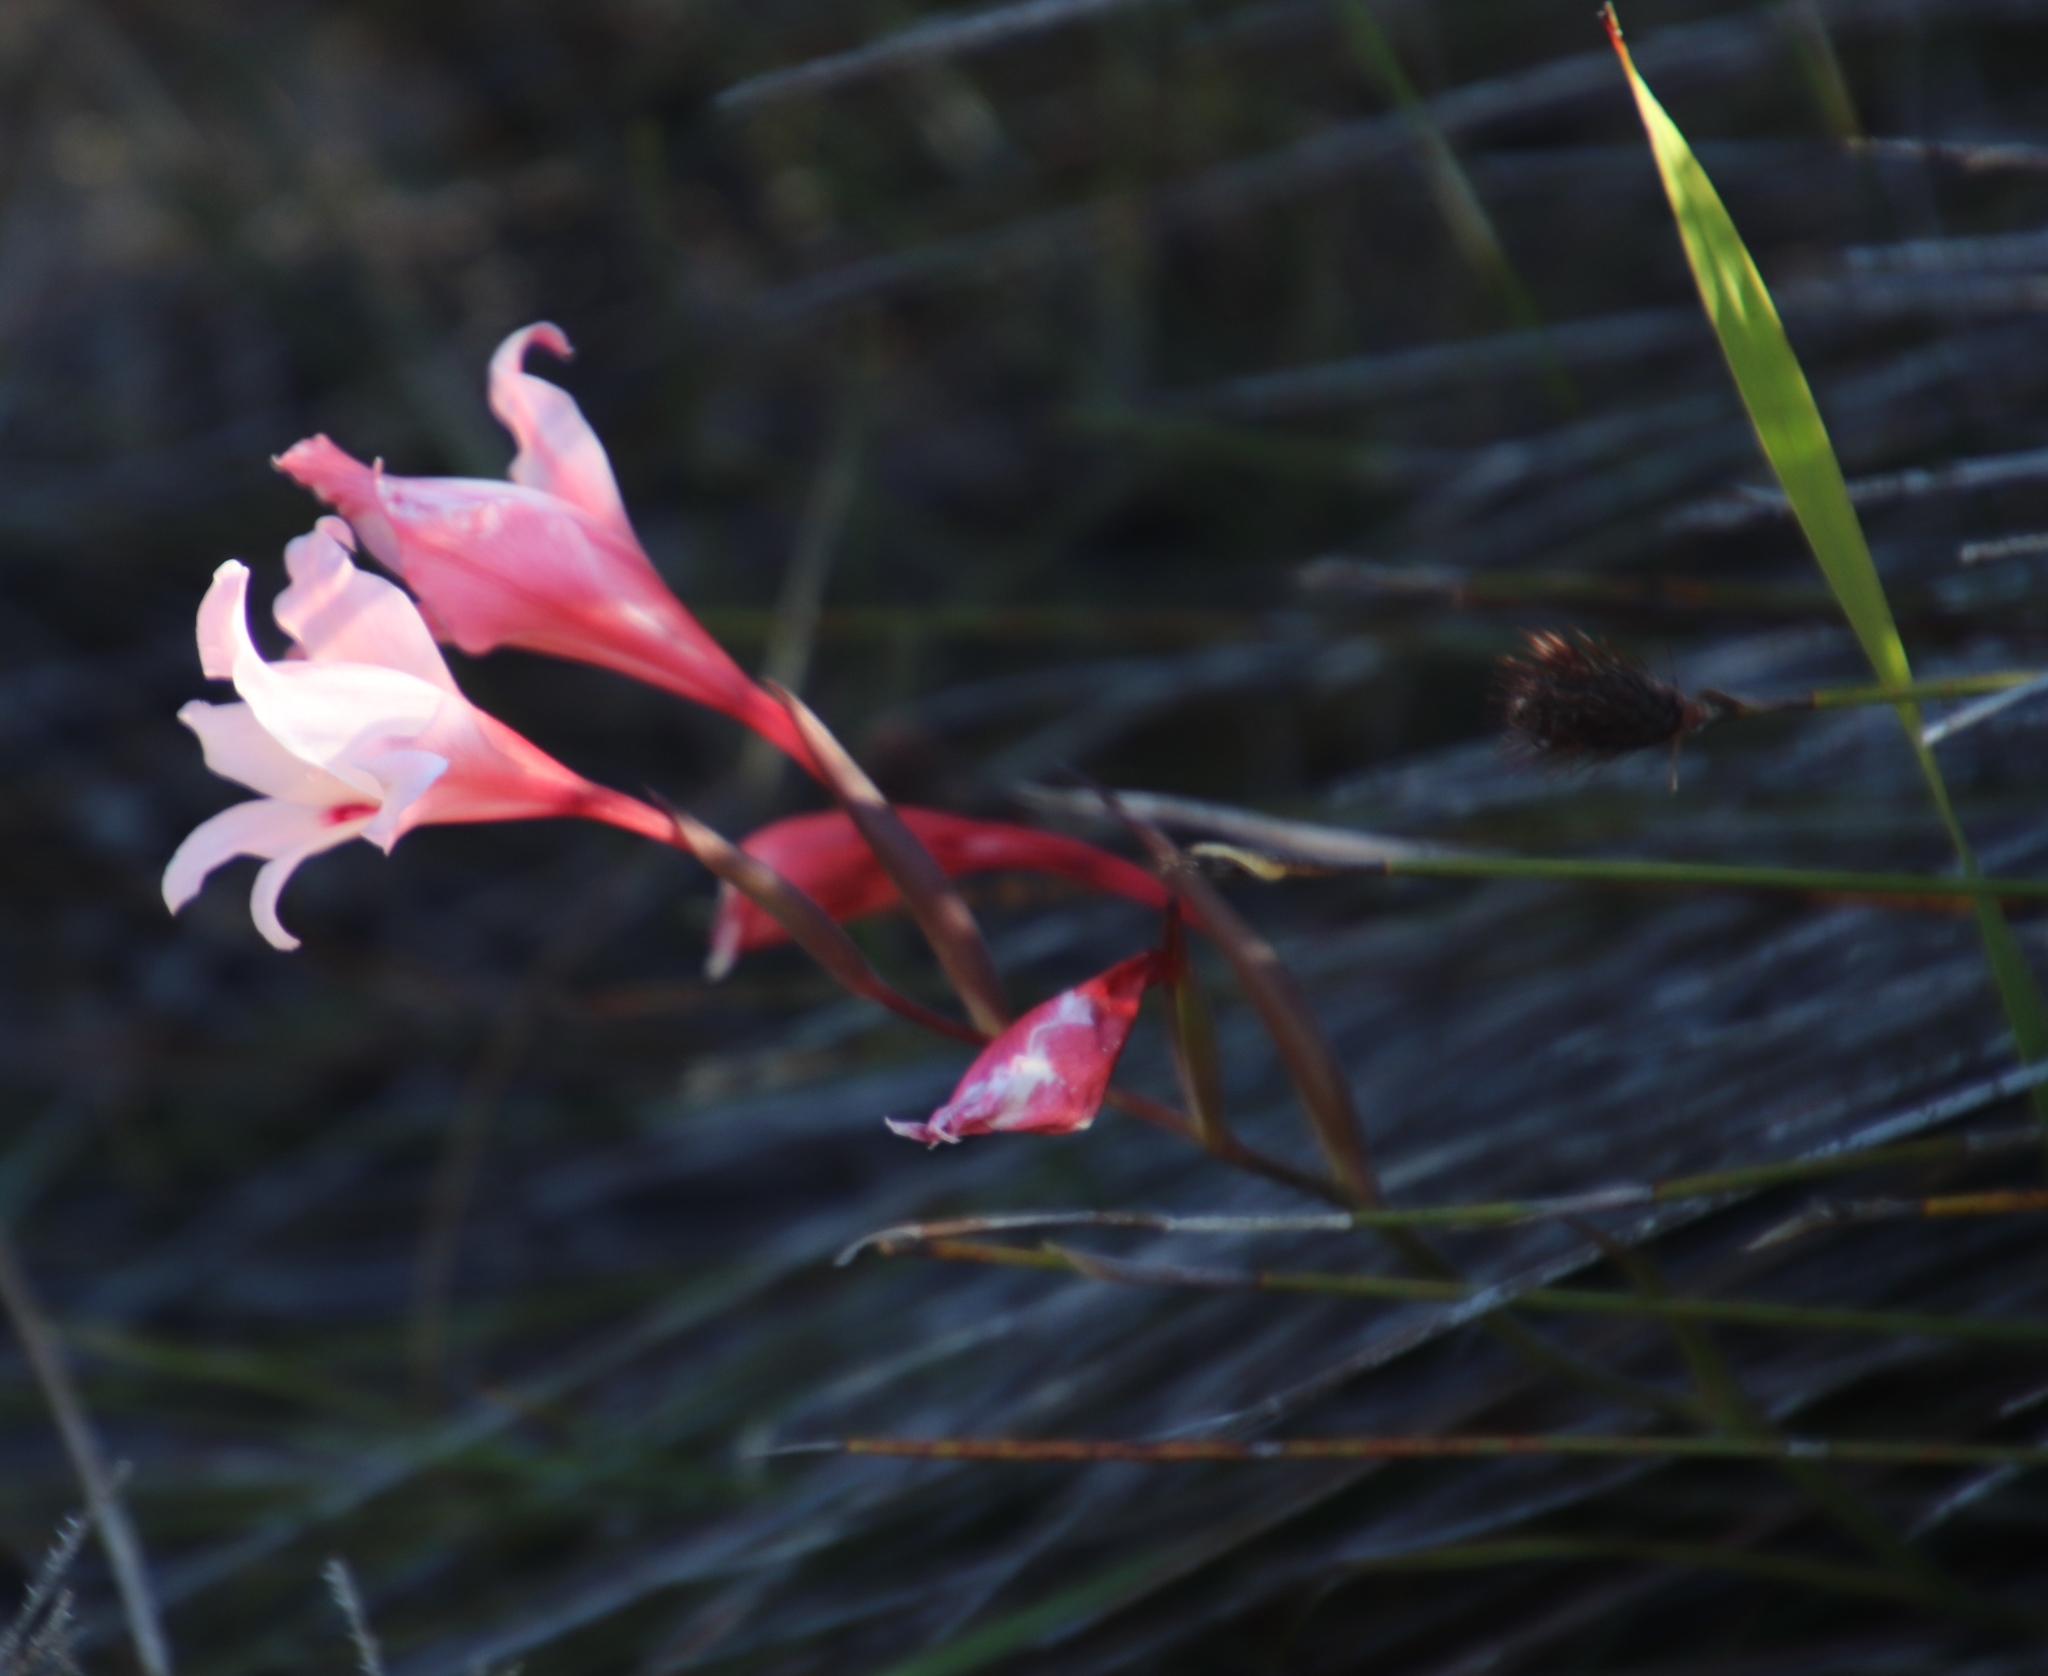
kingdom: Plantae
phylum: Tracheophyta
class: Liliopsida
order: Asparagales
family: Iridaceae
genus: Gladiolus
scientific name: Gladiolus carneus
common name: Painted-lady
